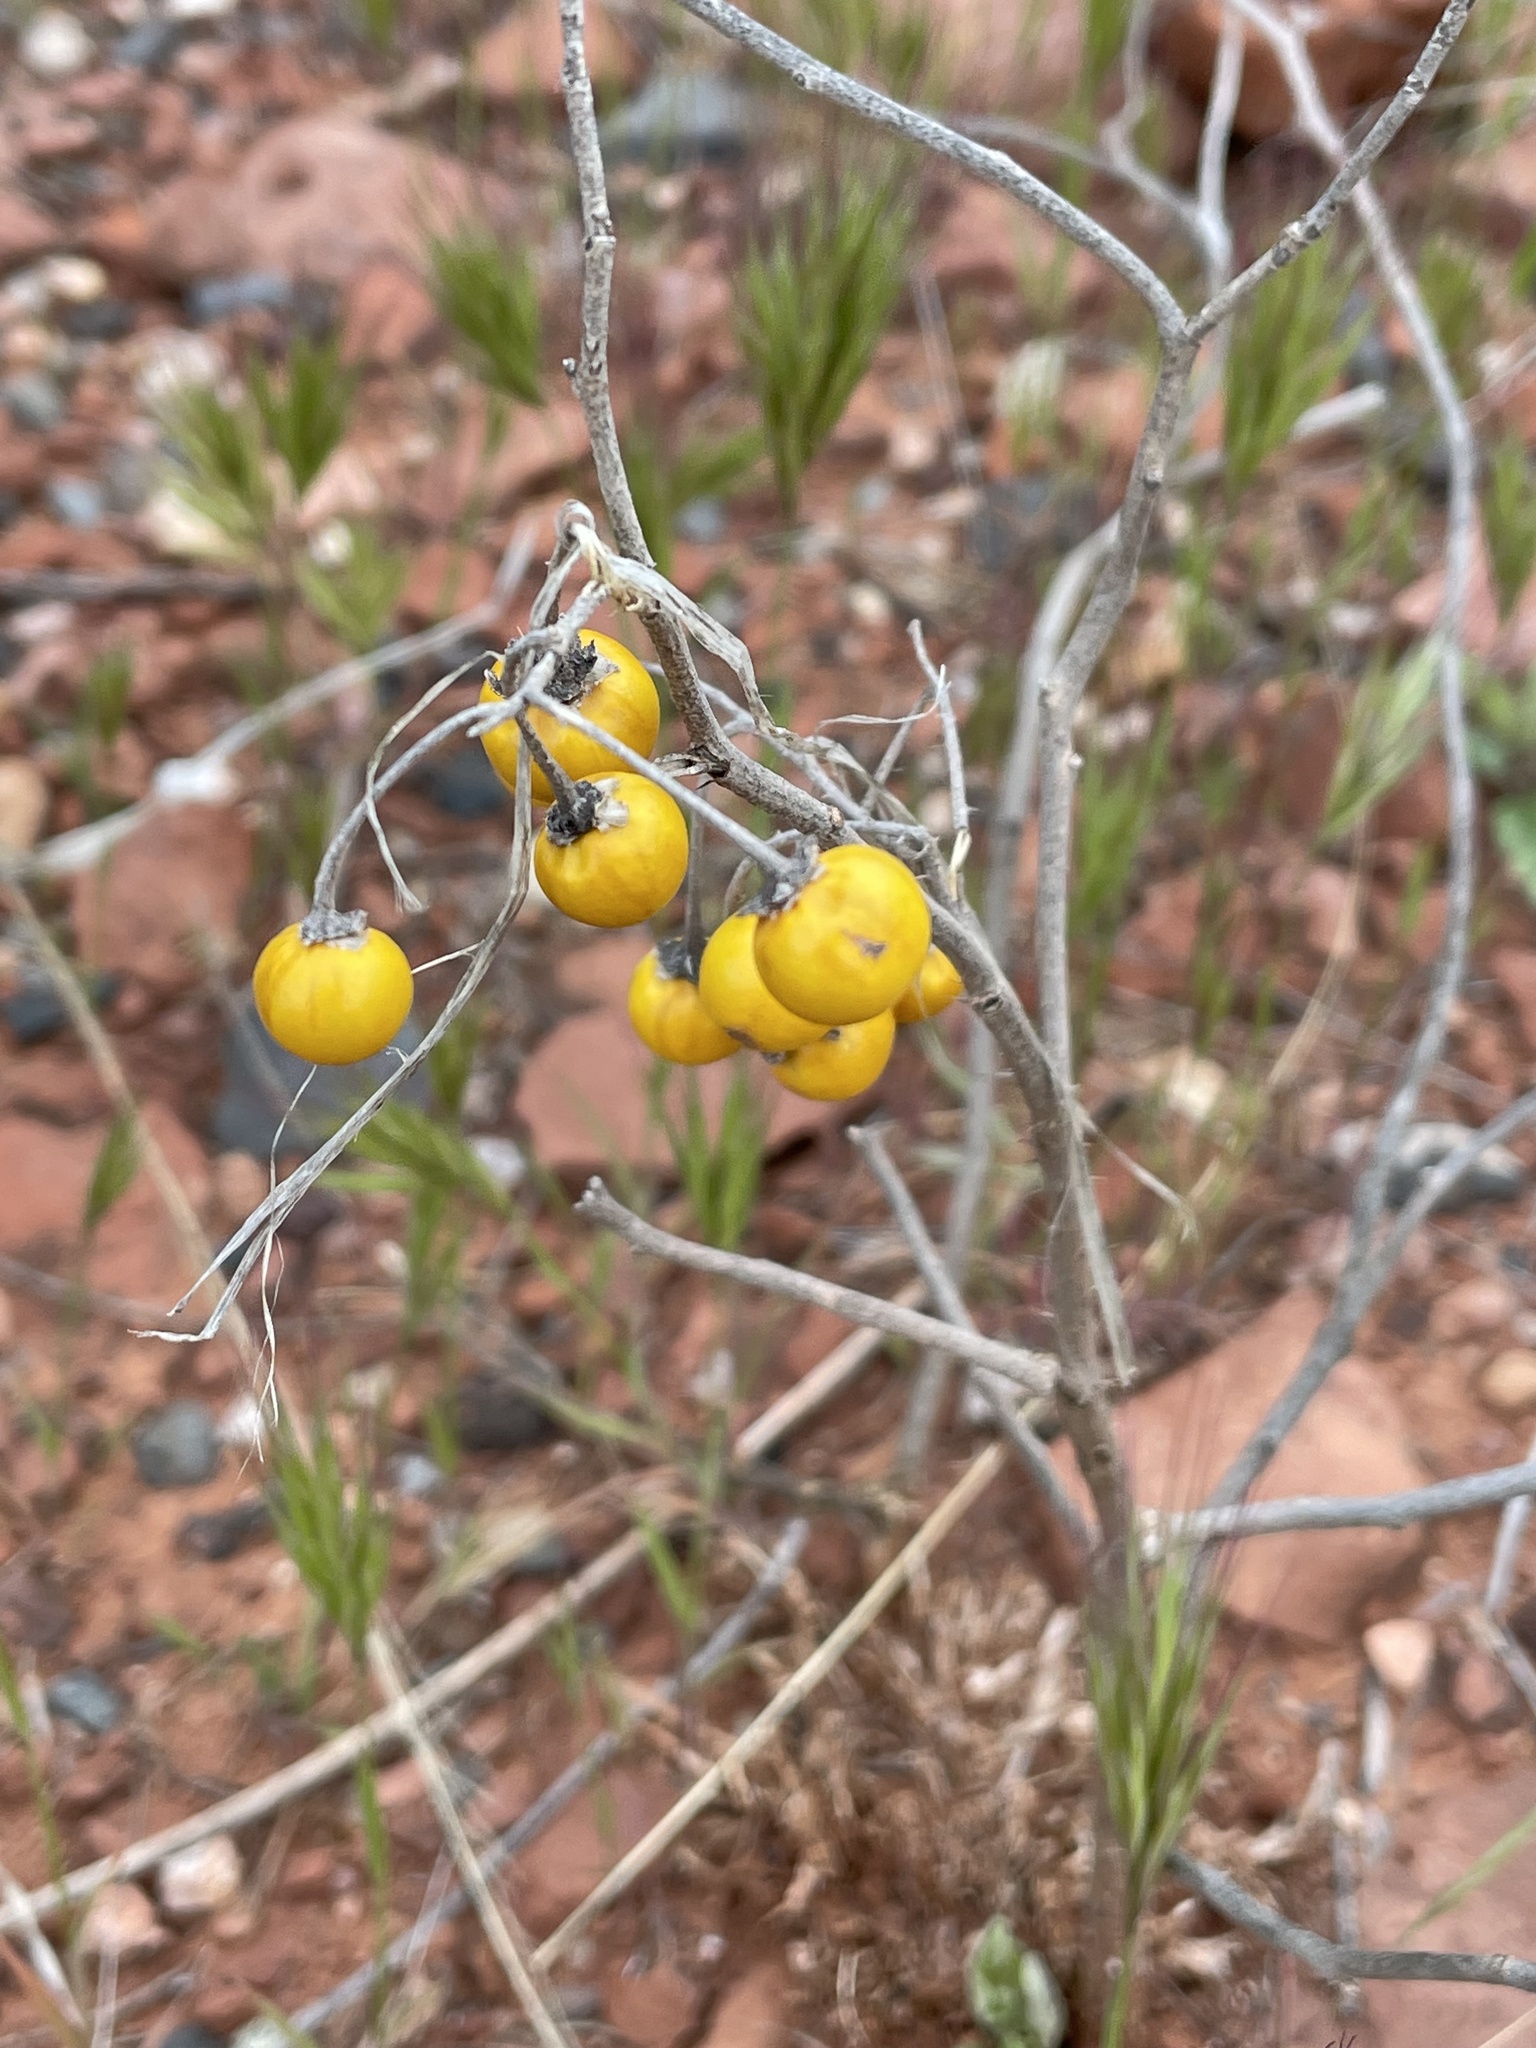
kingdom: Plantae
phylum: Tracheophyta
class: Magnoliopsida
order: Solanales
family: Solanaceae
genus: Solanum
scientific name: Solanum elaeagnifolium
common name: Silverleaf nightshade
